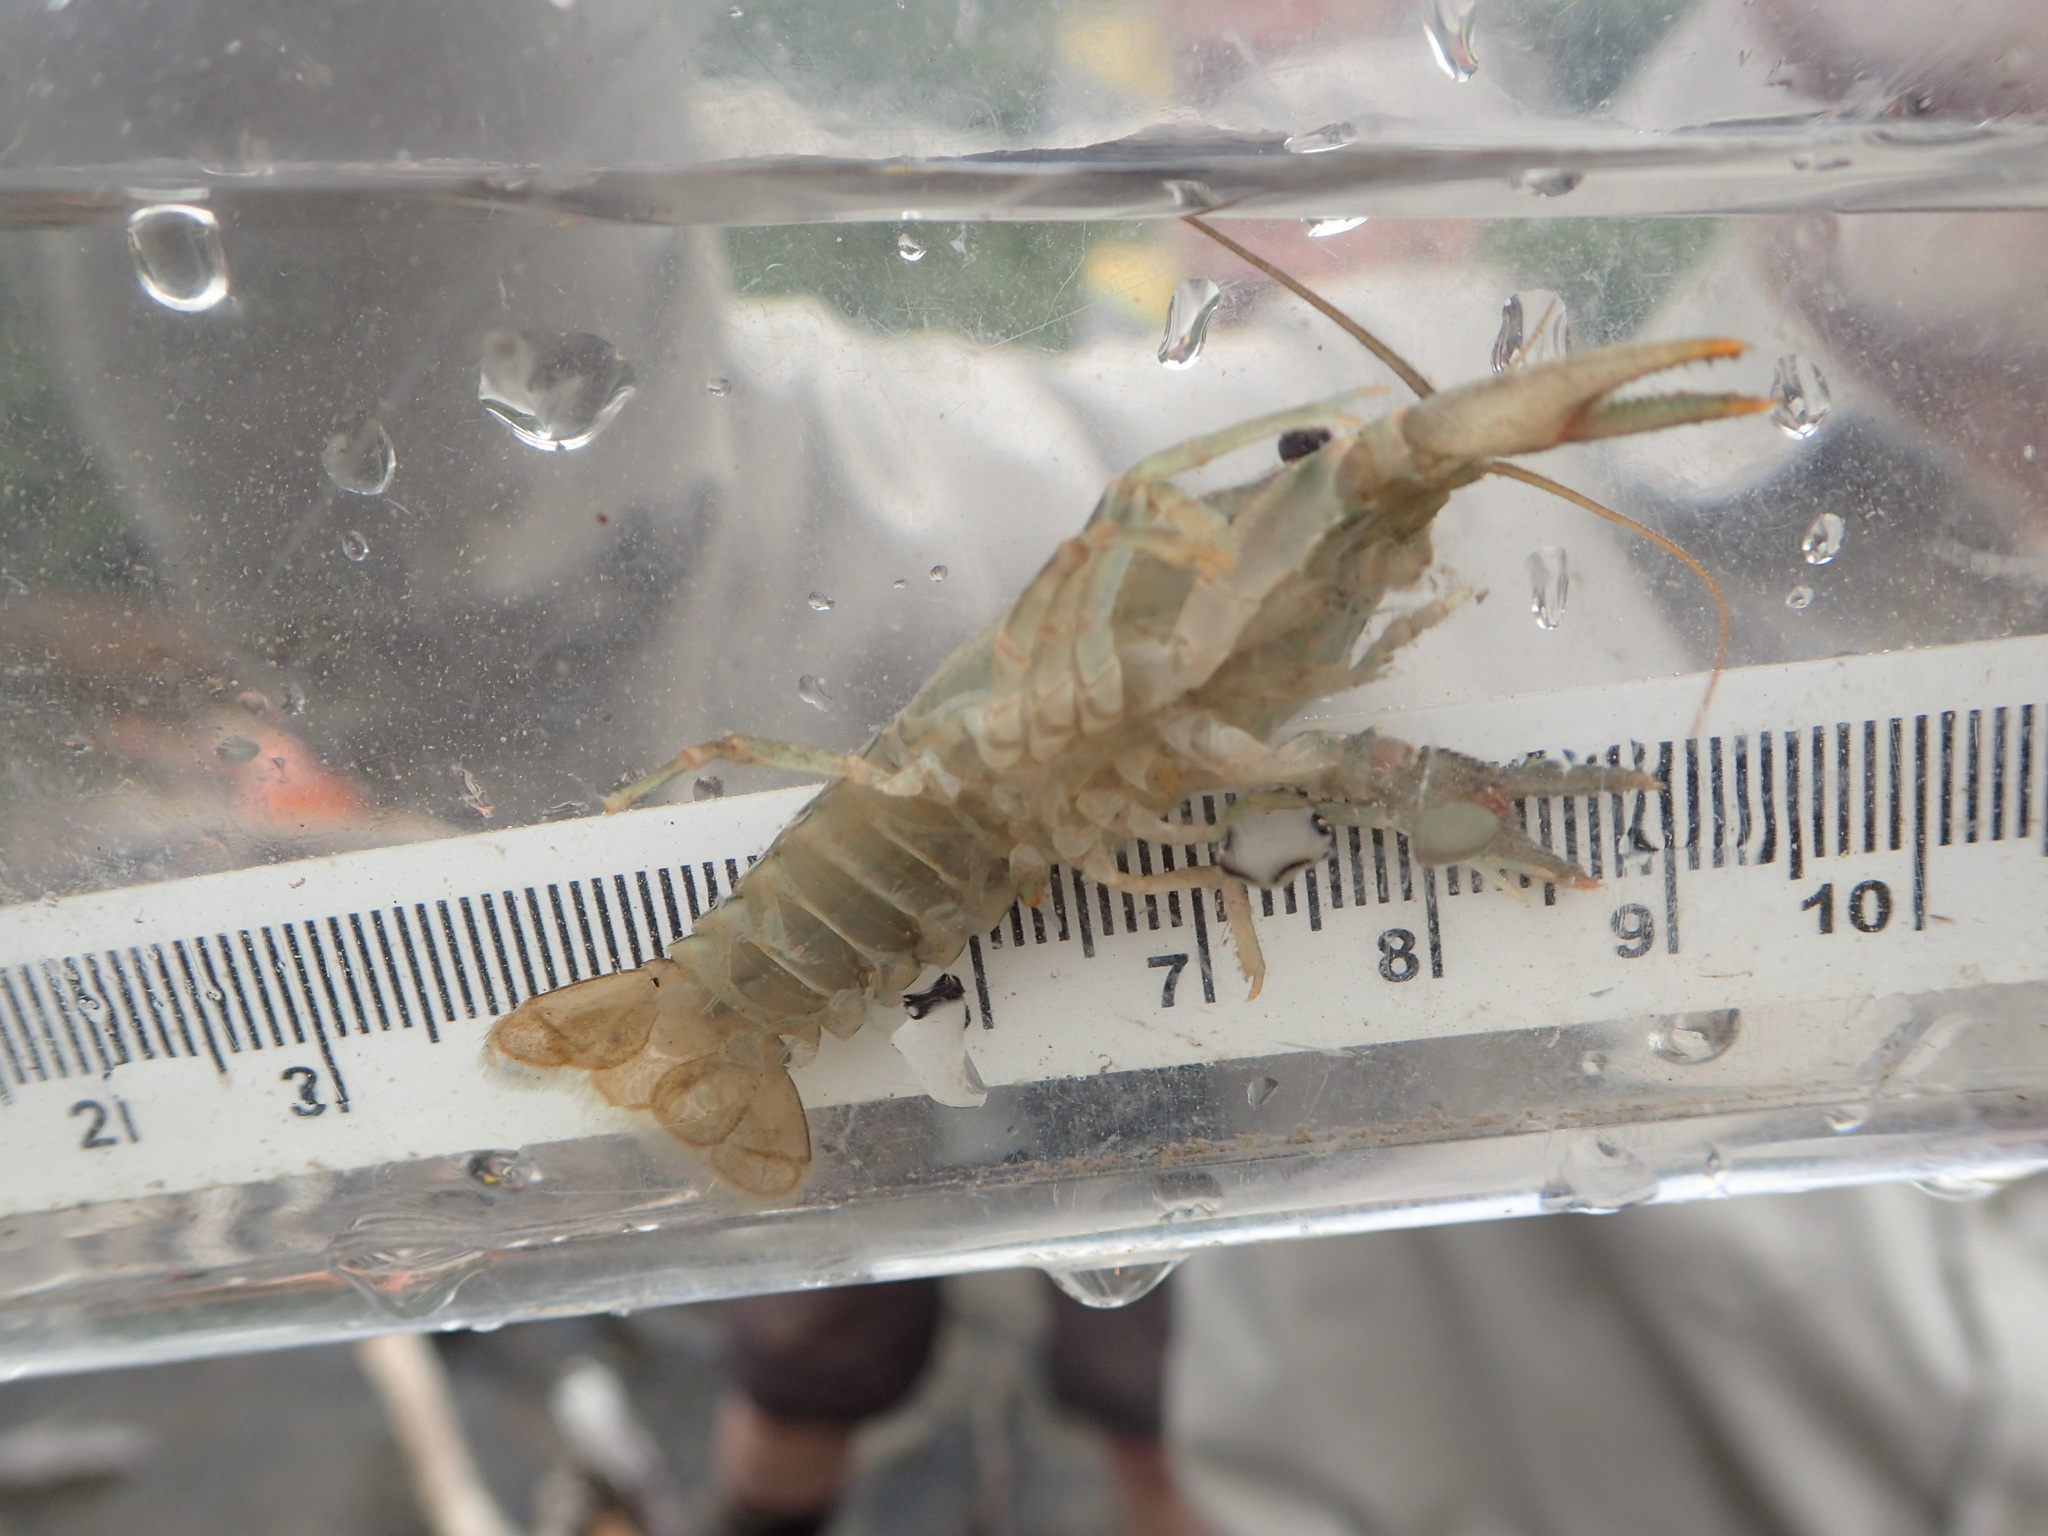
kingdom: Animalia
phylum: Arthropoda
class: Malacostraca
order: Decapoda
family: Cambaridae
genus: Faxonius
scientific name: Faxonius virilis
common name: Virile crayfish
